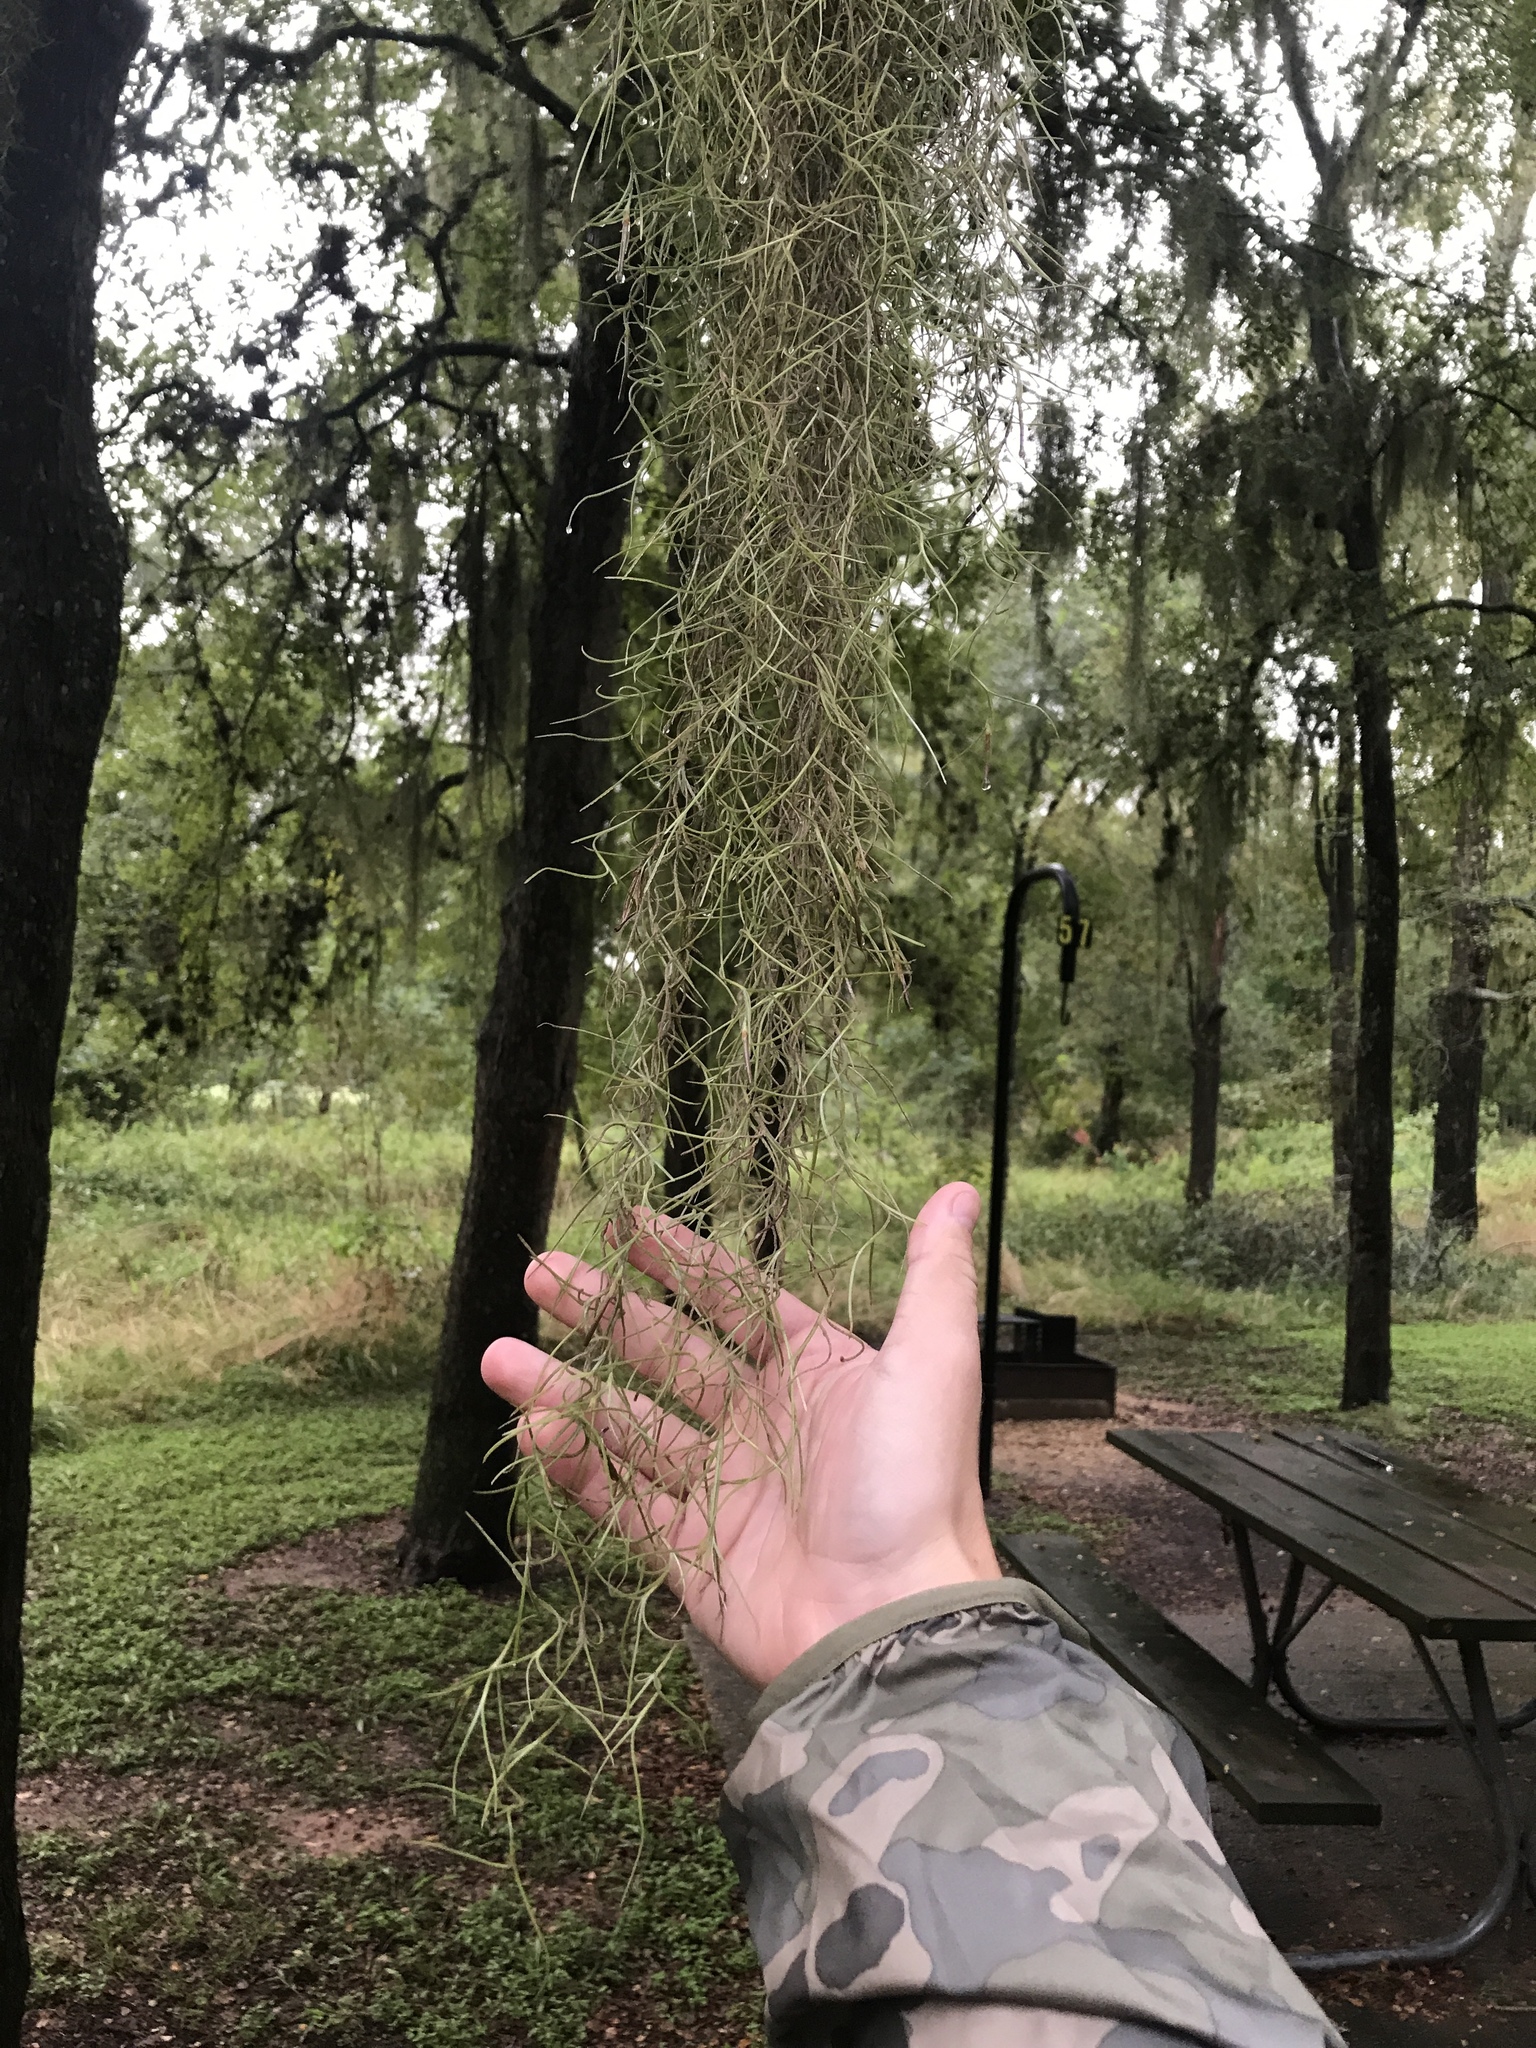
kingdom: Plantae
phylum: Tracheophyta
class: Liliopsida
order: Poales
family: Bromeliaceae
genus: Tillandsia
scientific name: Tillandsia usneoides
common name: Spanish moss
